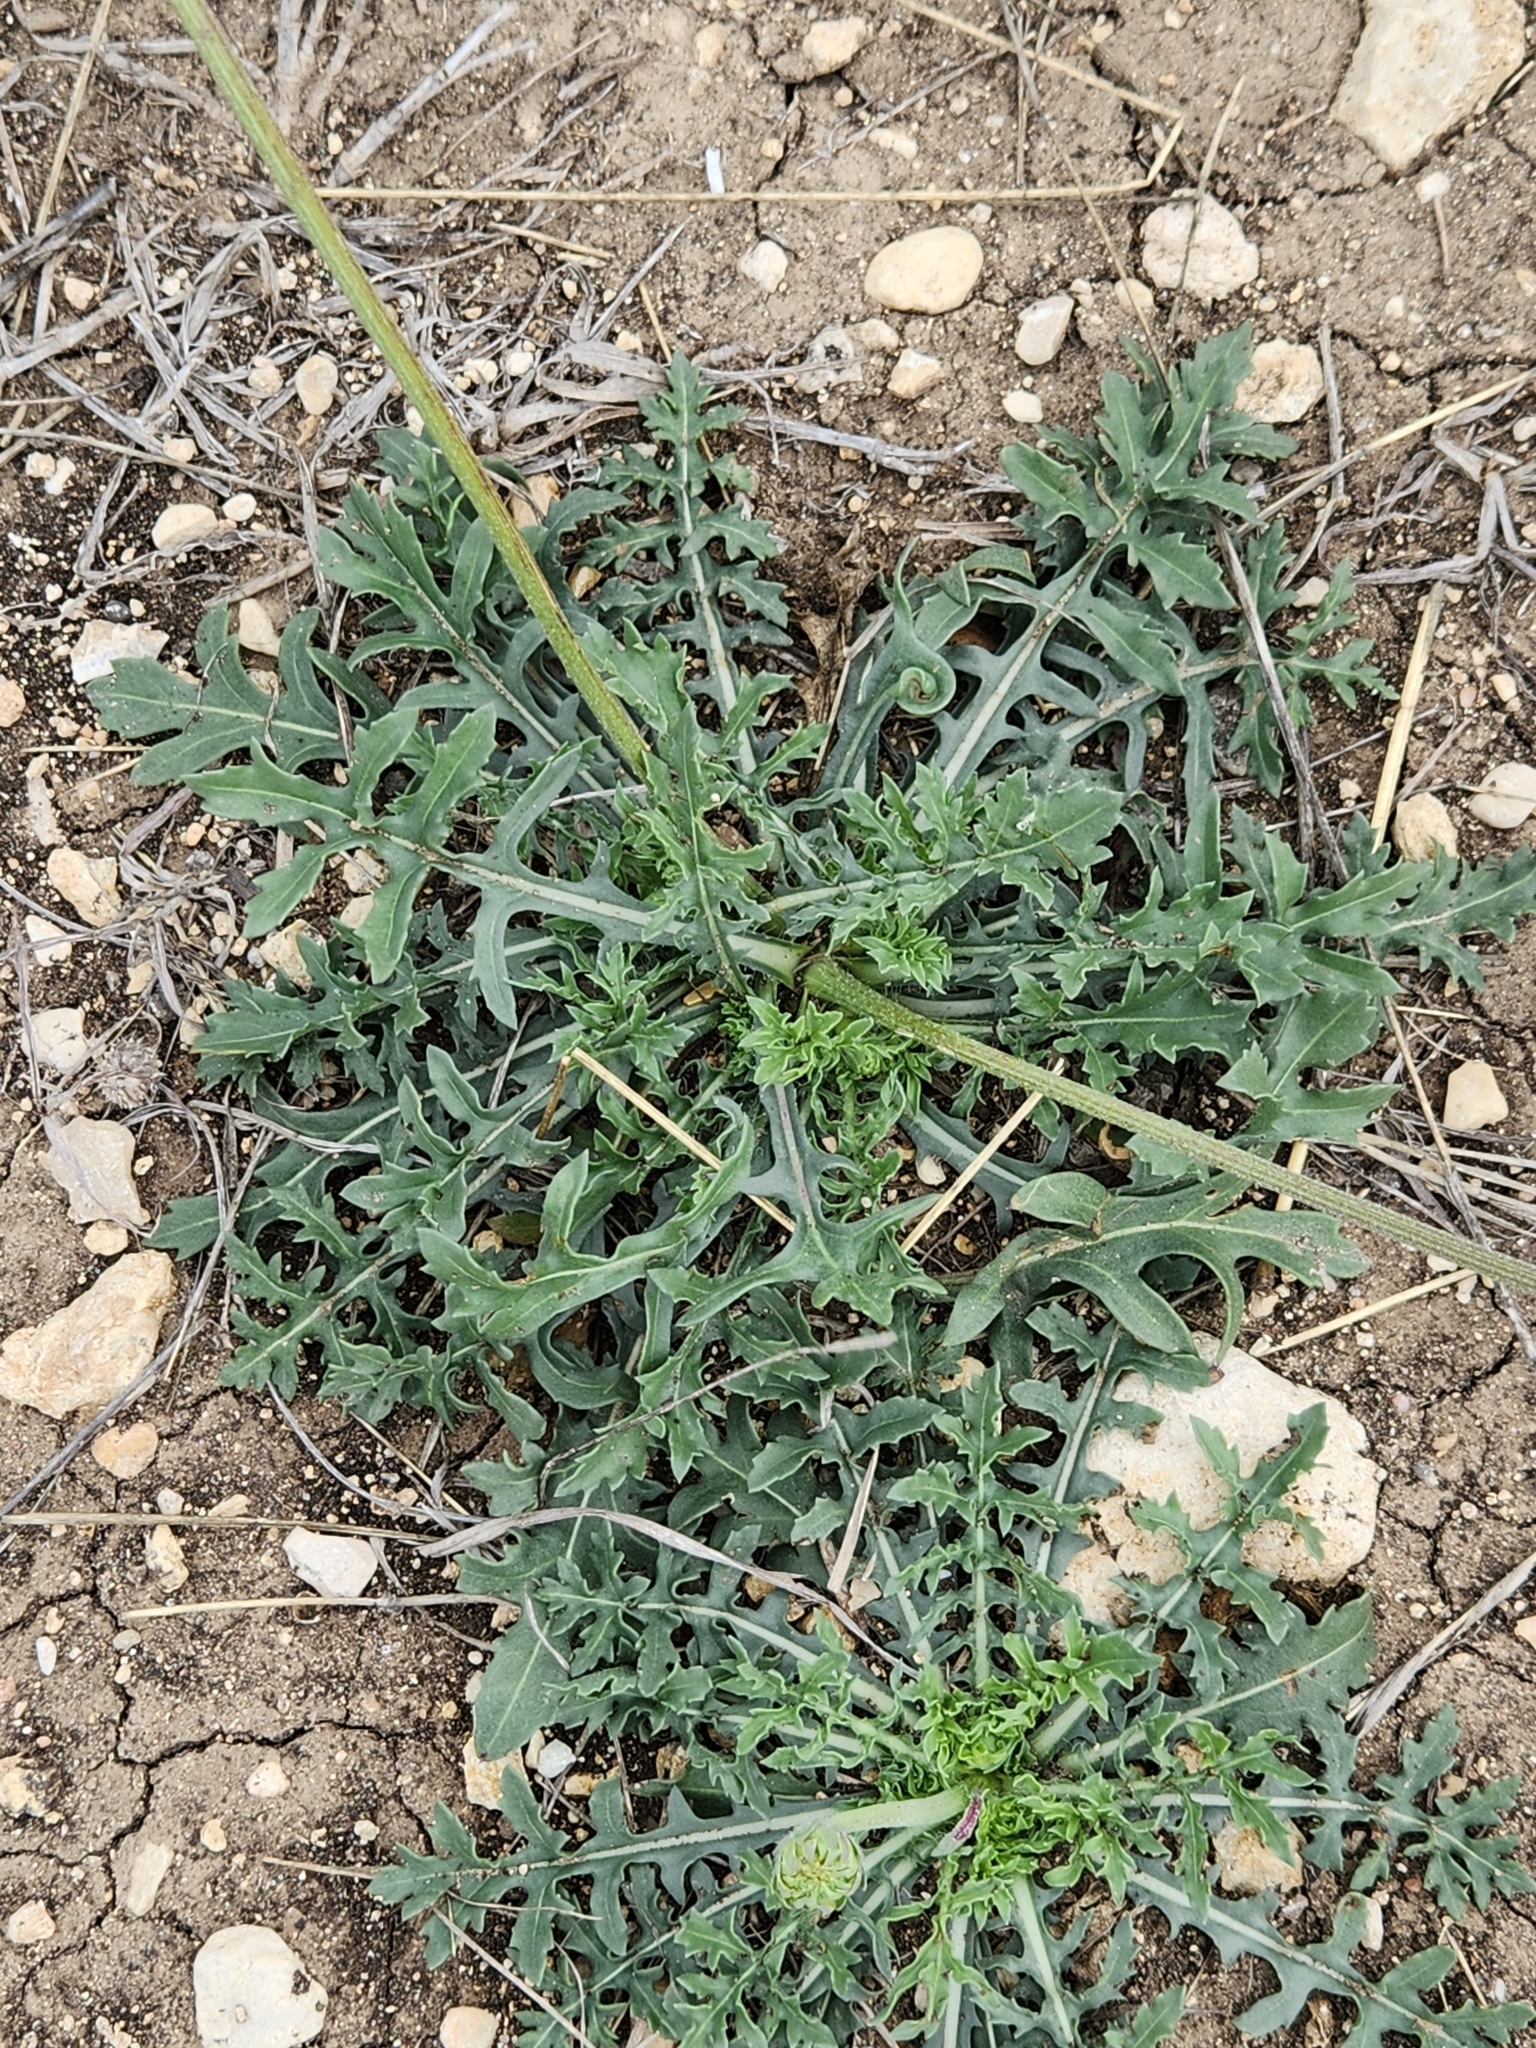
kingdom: Plantae
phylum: Tracheophyta
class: Magnoliopsida
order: Asterales
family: Asteraceae
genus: Gaillardia
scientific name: Gaillardia suavis
